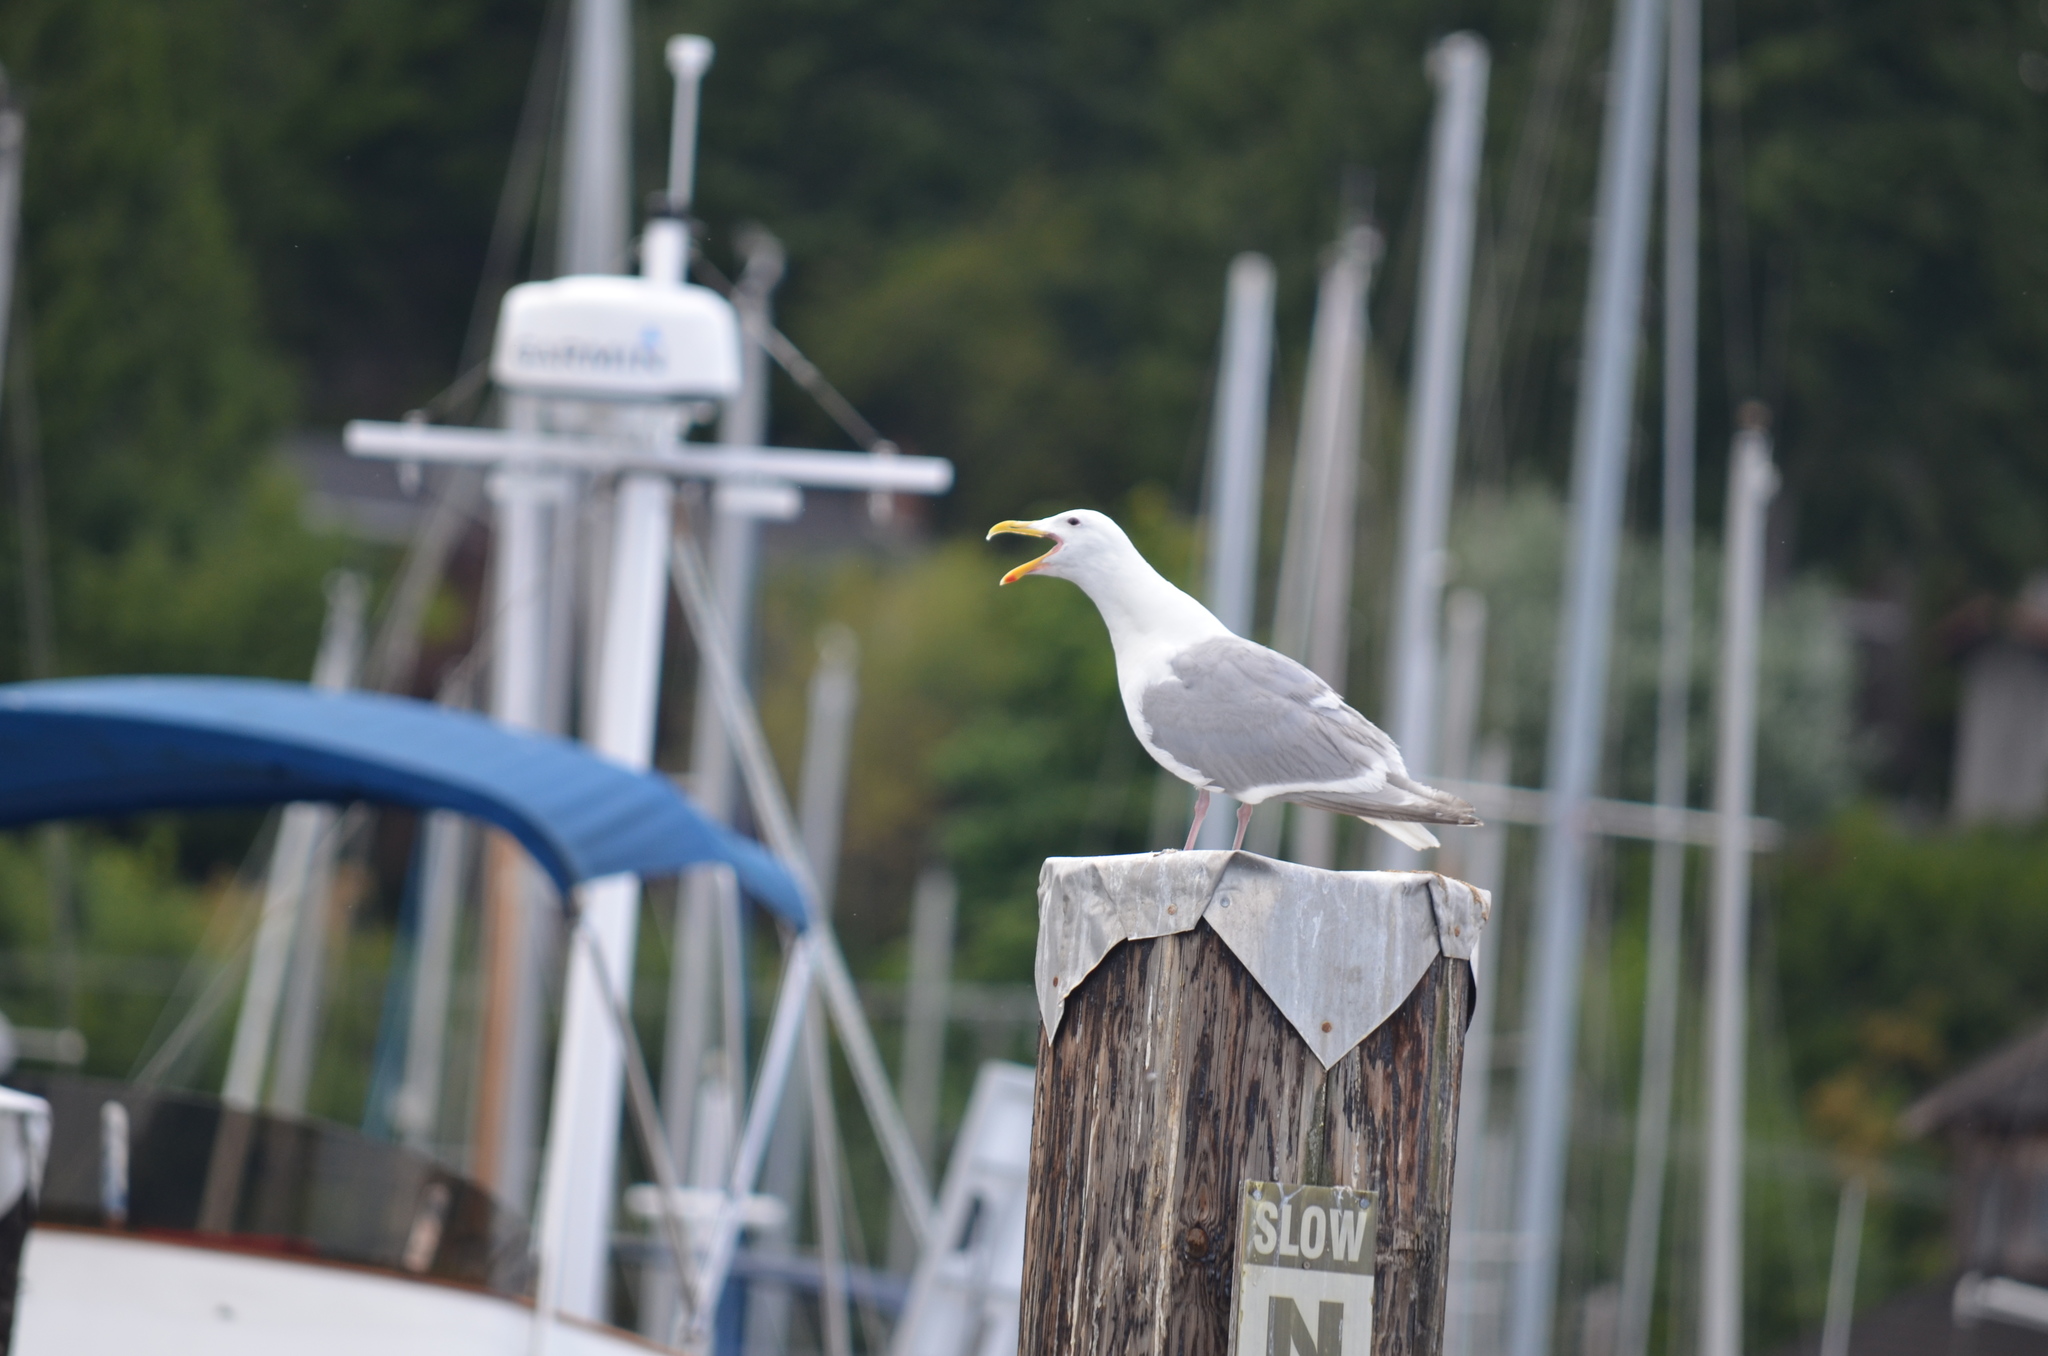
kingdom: Animalia
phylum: Chordata
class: Aves
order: Charadriiformes
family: Laridae
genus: Larus
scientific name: Larus glaucescens
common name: Glaucous-winged gull
